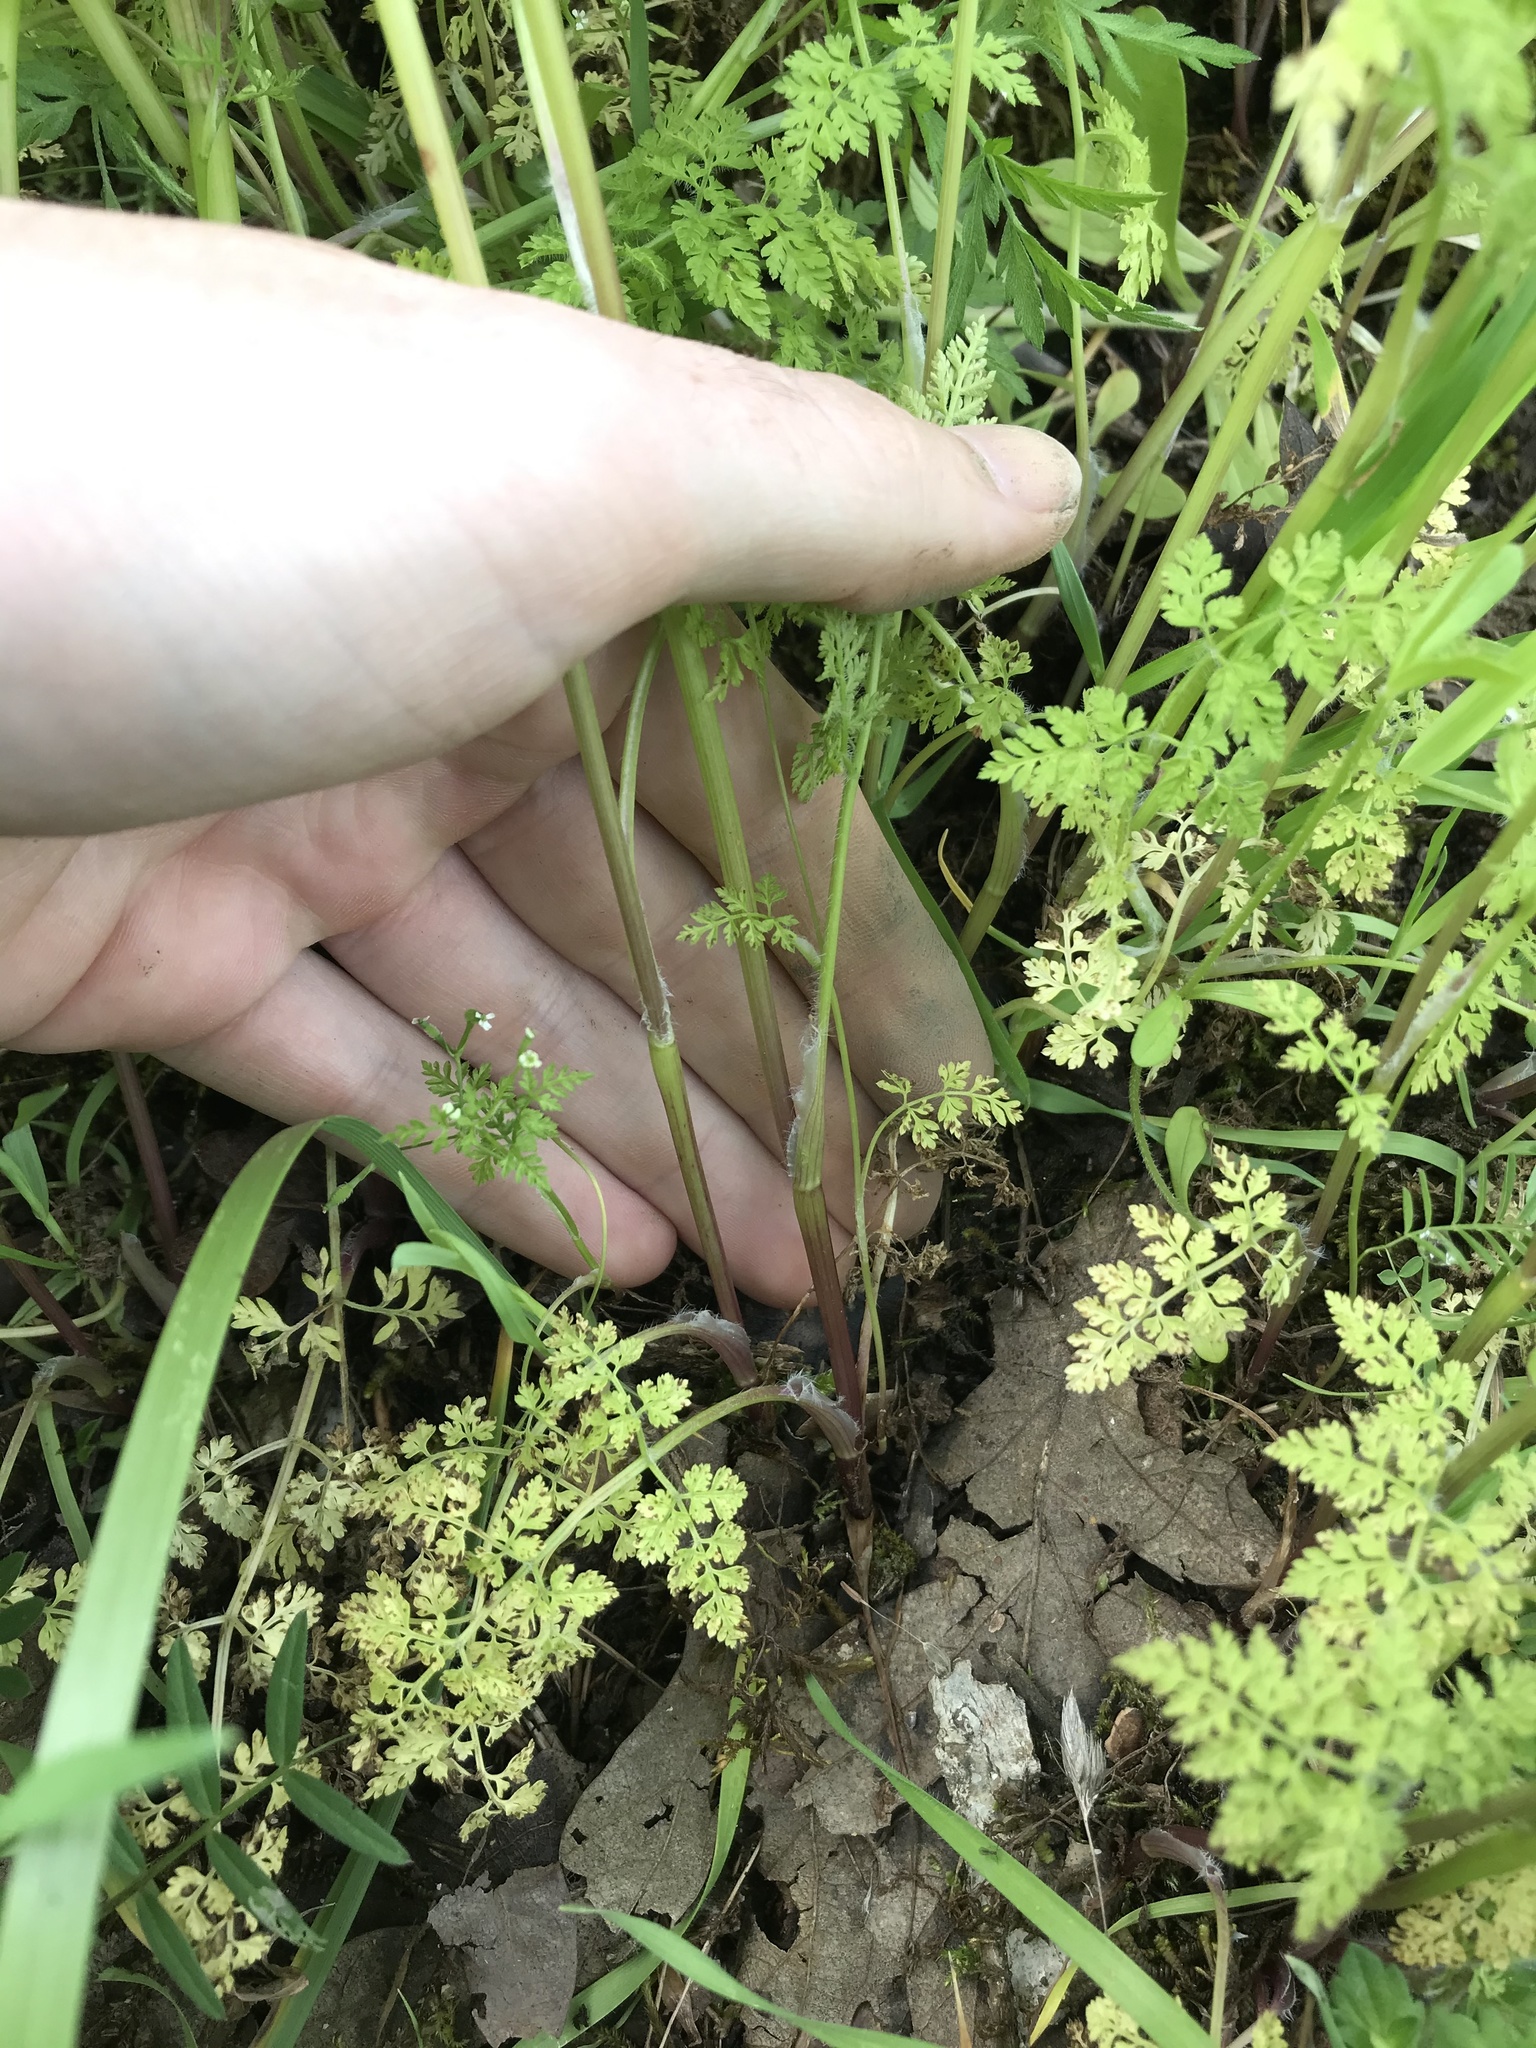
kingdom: Plantae
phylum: Tracheophyta
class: Magnoliopsida
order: Apiales
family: Apiaceae
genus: Anthriscus
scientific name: Anthriscus caucalis
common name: Bur chervil
